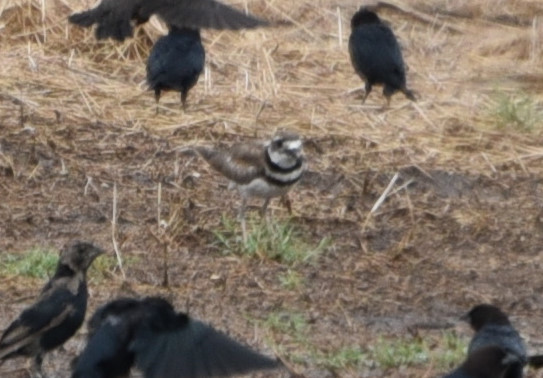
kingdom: Animalia
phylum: Chordata
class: Aves
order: Charadriiformes
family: Charadriidae
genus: Charadrius
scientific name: Charadrius vociferus
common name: Killdeer
